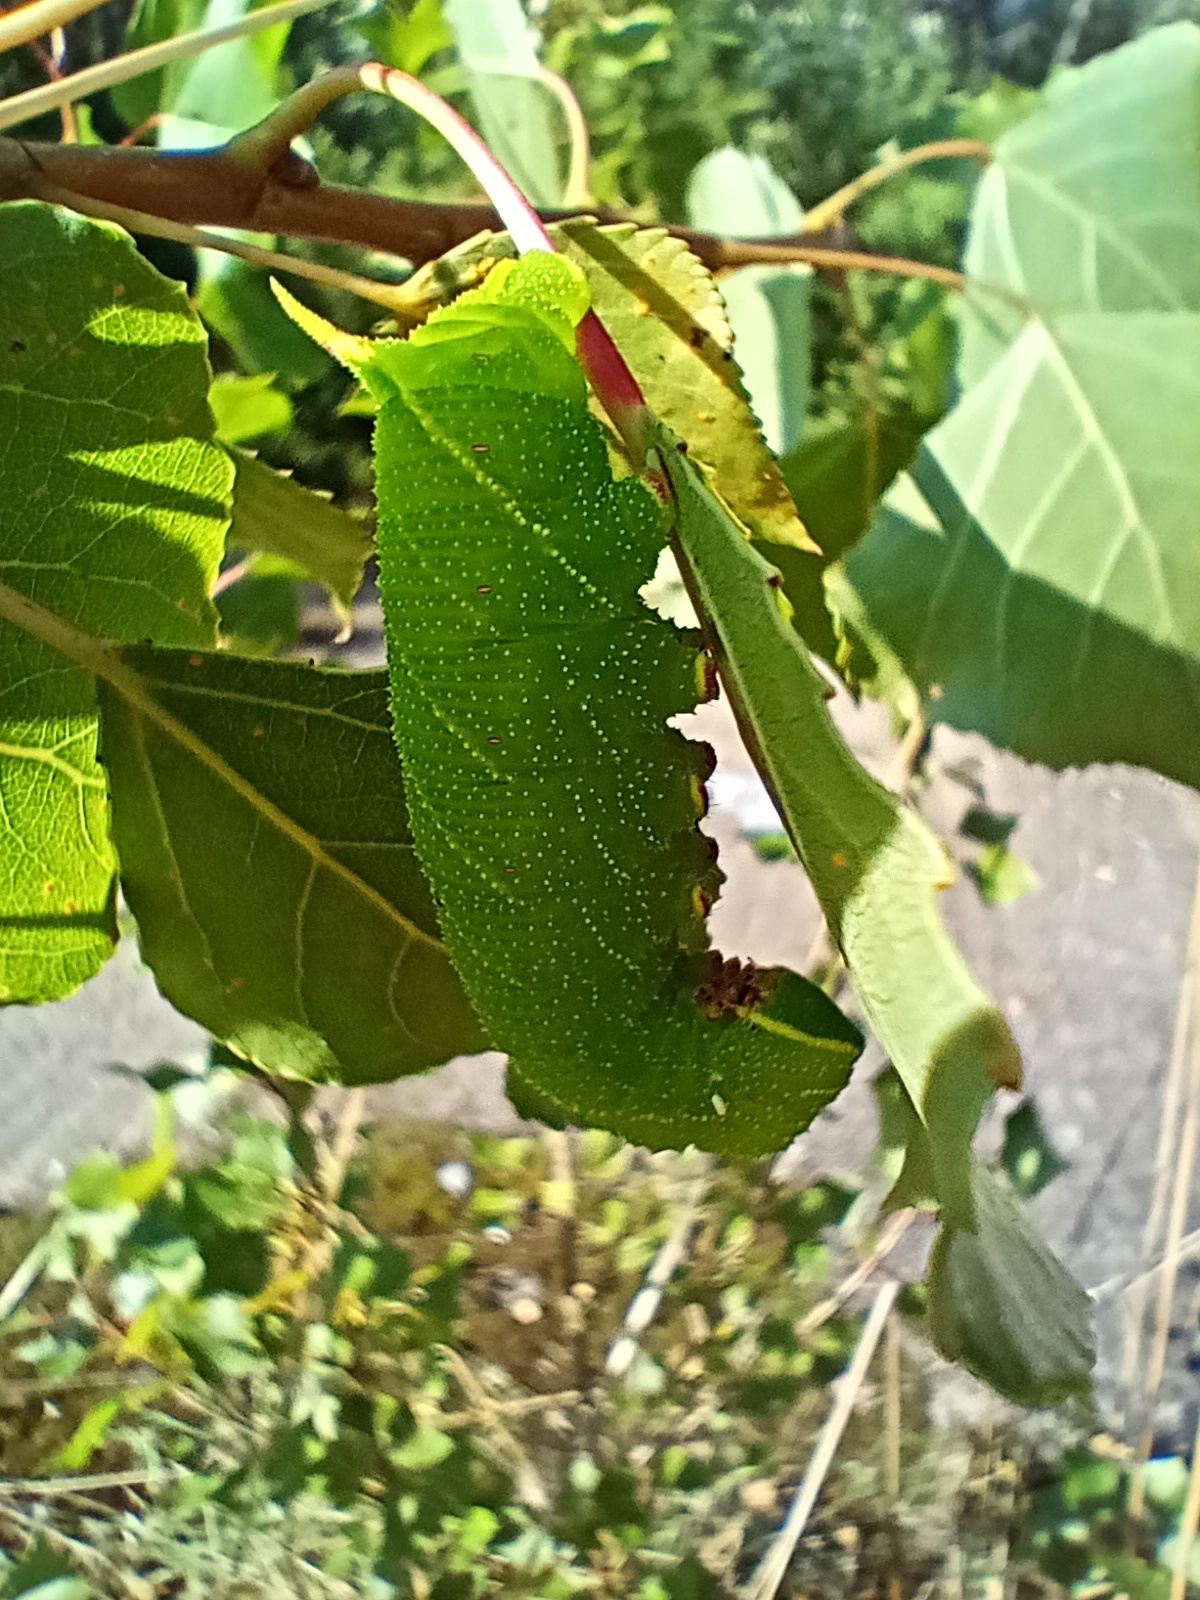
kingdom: Animalia
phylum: Arthropoda
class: Insecta
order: Lepidoptera
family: Sphingidae
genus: Laothoe
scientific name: Laothoe populi
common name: Poplar hawk-moth
